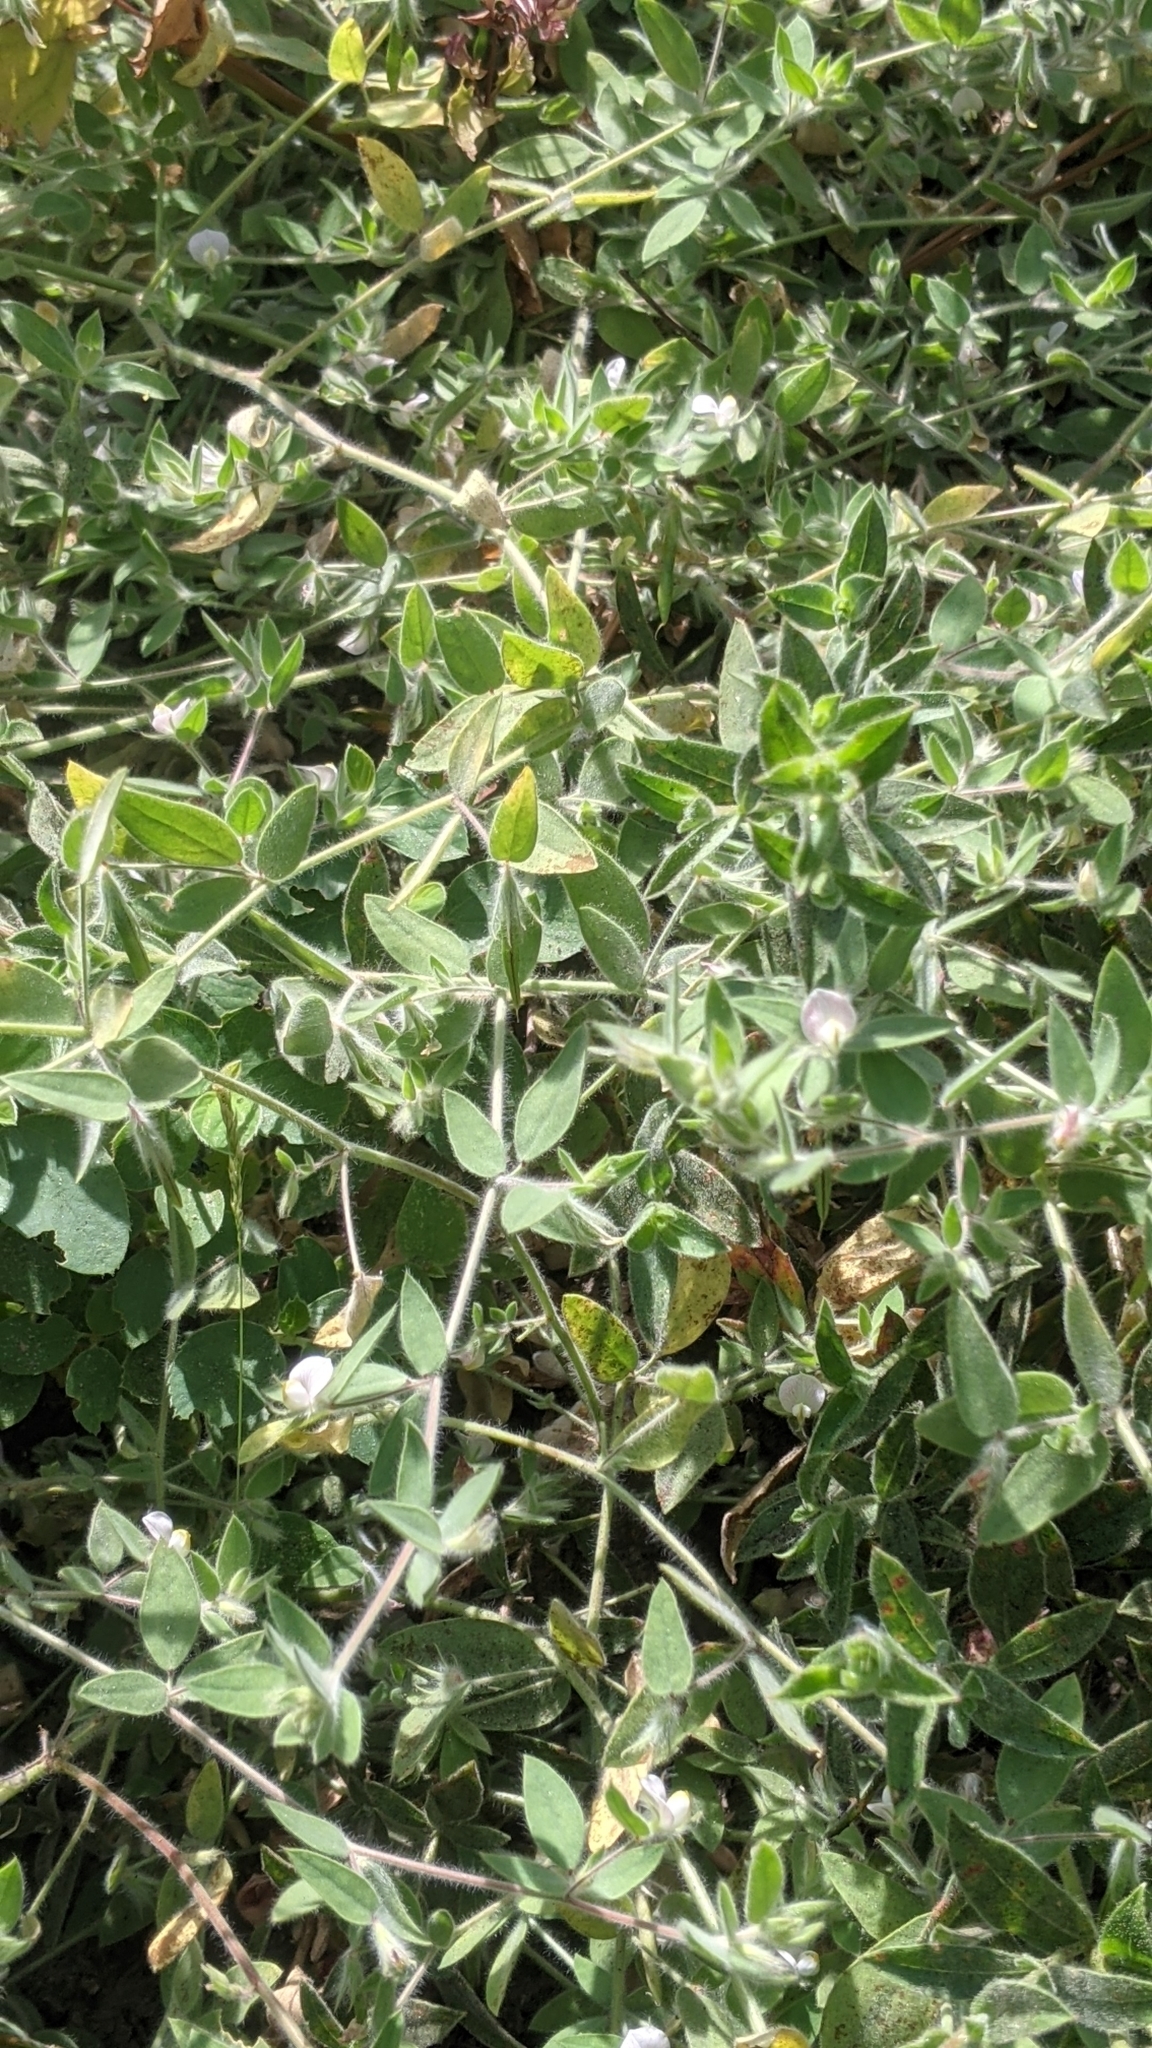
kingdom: Plantae
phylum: Tracheophyta
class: Magnoliopsida
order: Fabales
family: Fabaceae
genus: Acmispon
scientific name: Acmispon americanus
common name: American bird's-foot trefoil
